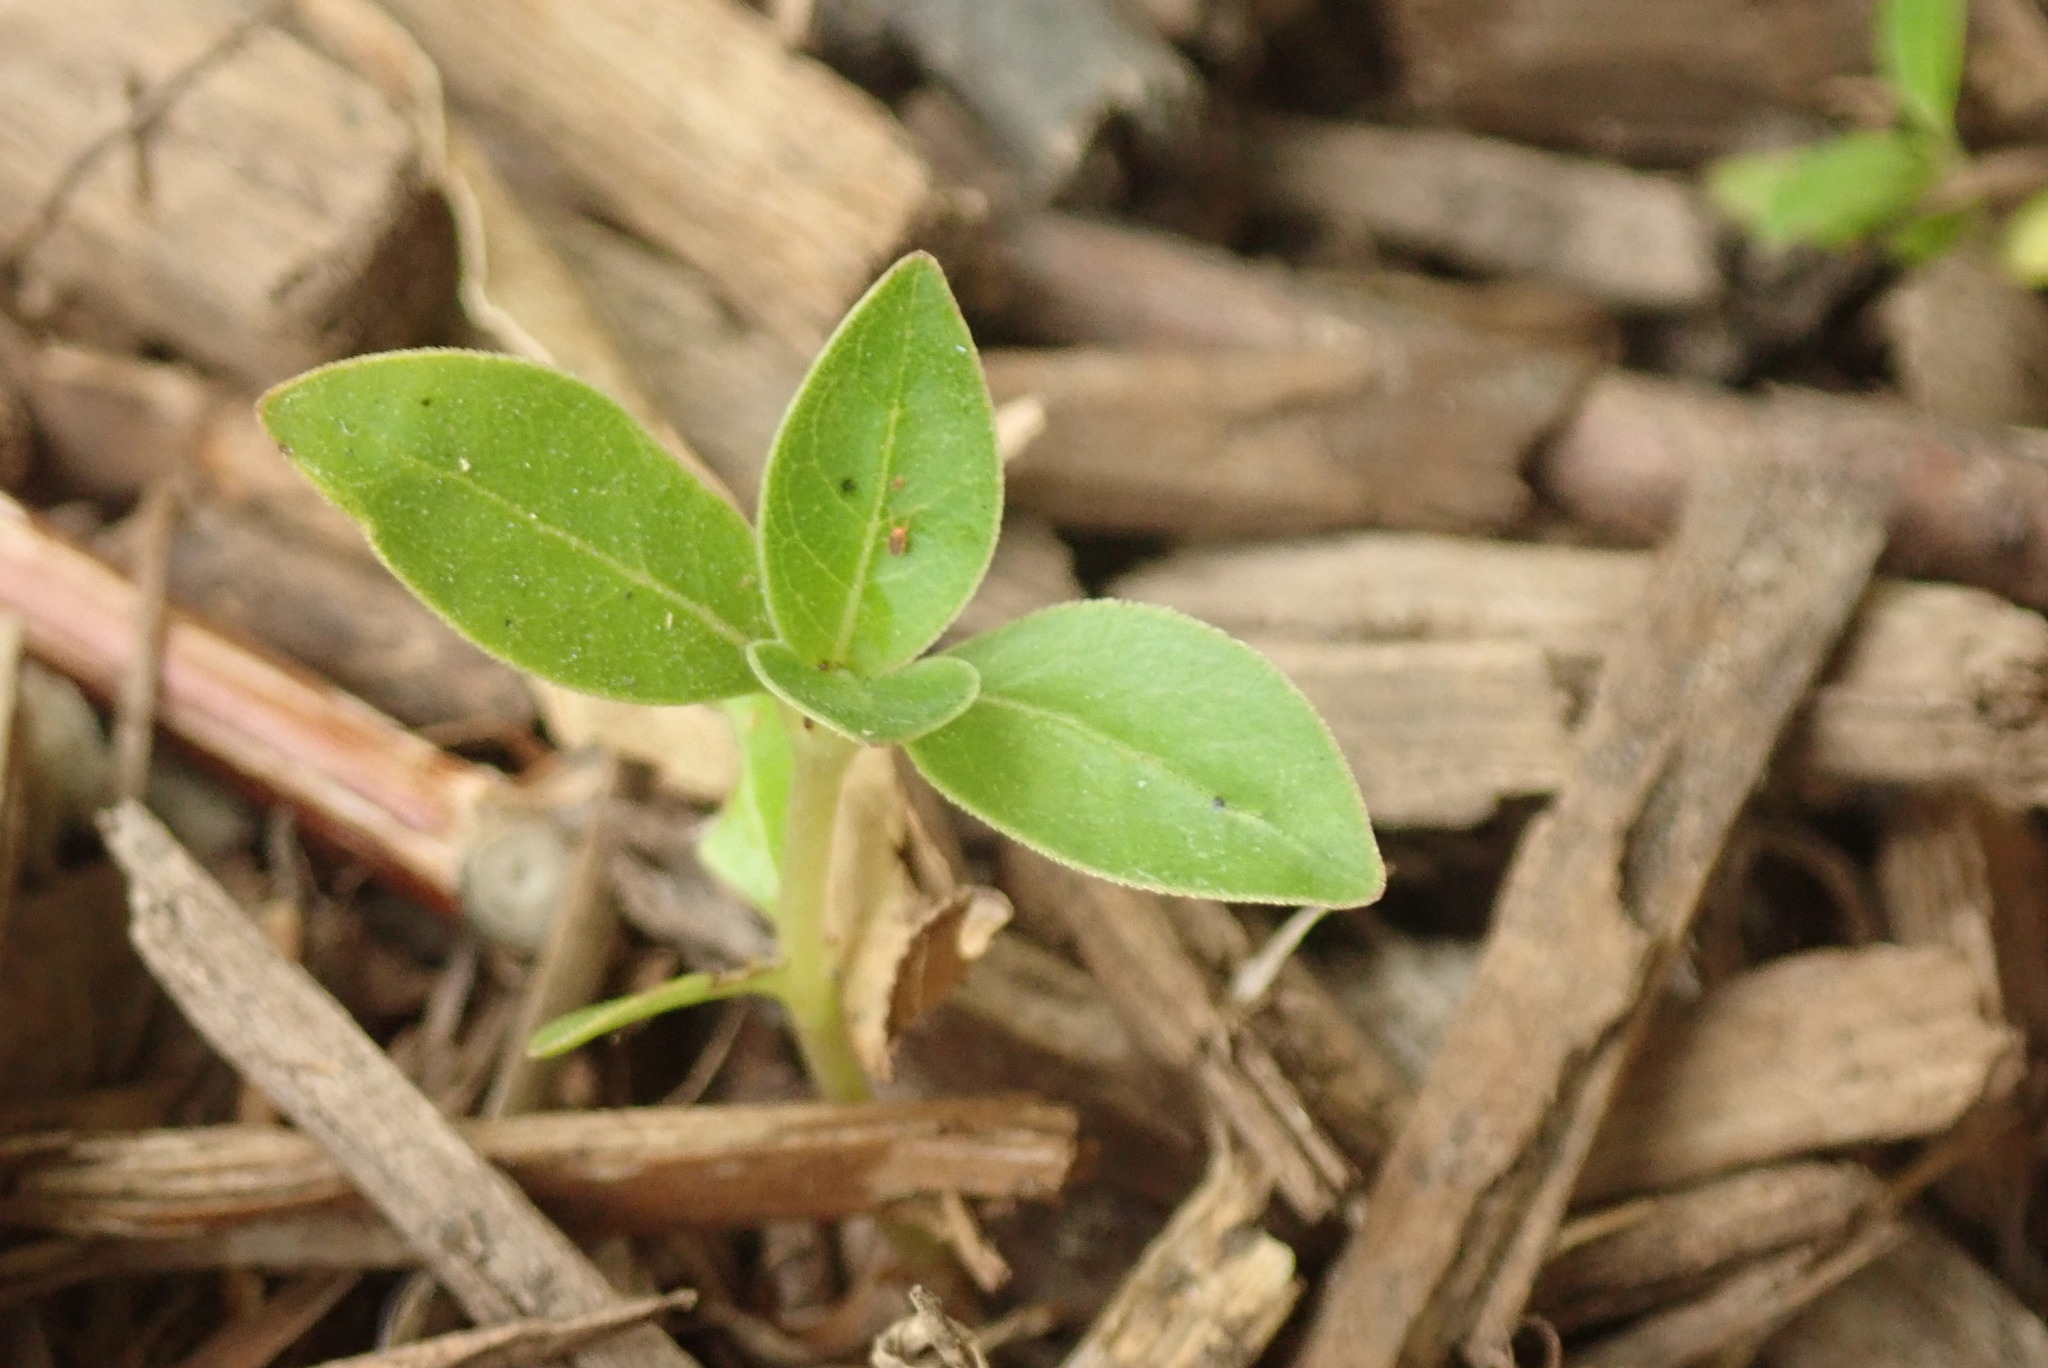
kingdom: Plantae
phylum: Tracheophyta
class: Magnoliopsida
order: Gentianales
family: Rubiaceae
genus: Coprosma
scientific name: Coprosma robusta
